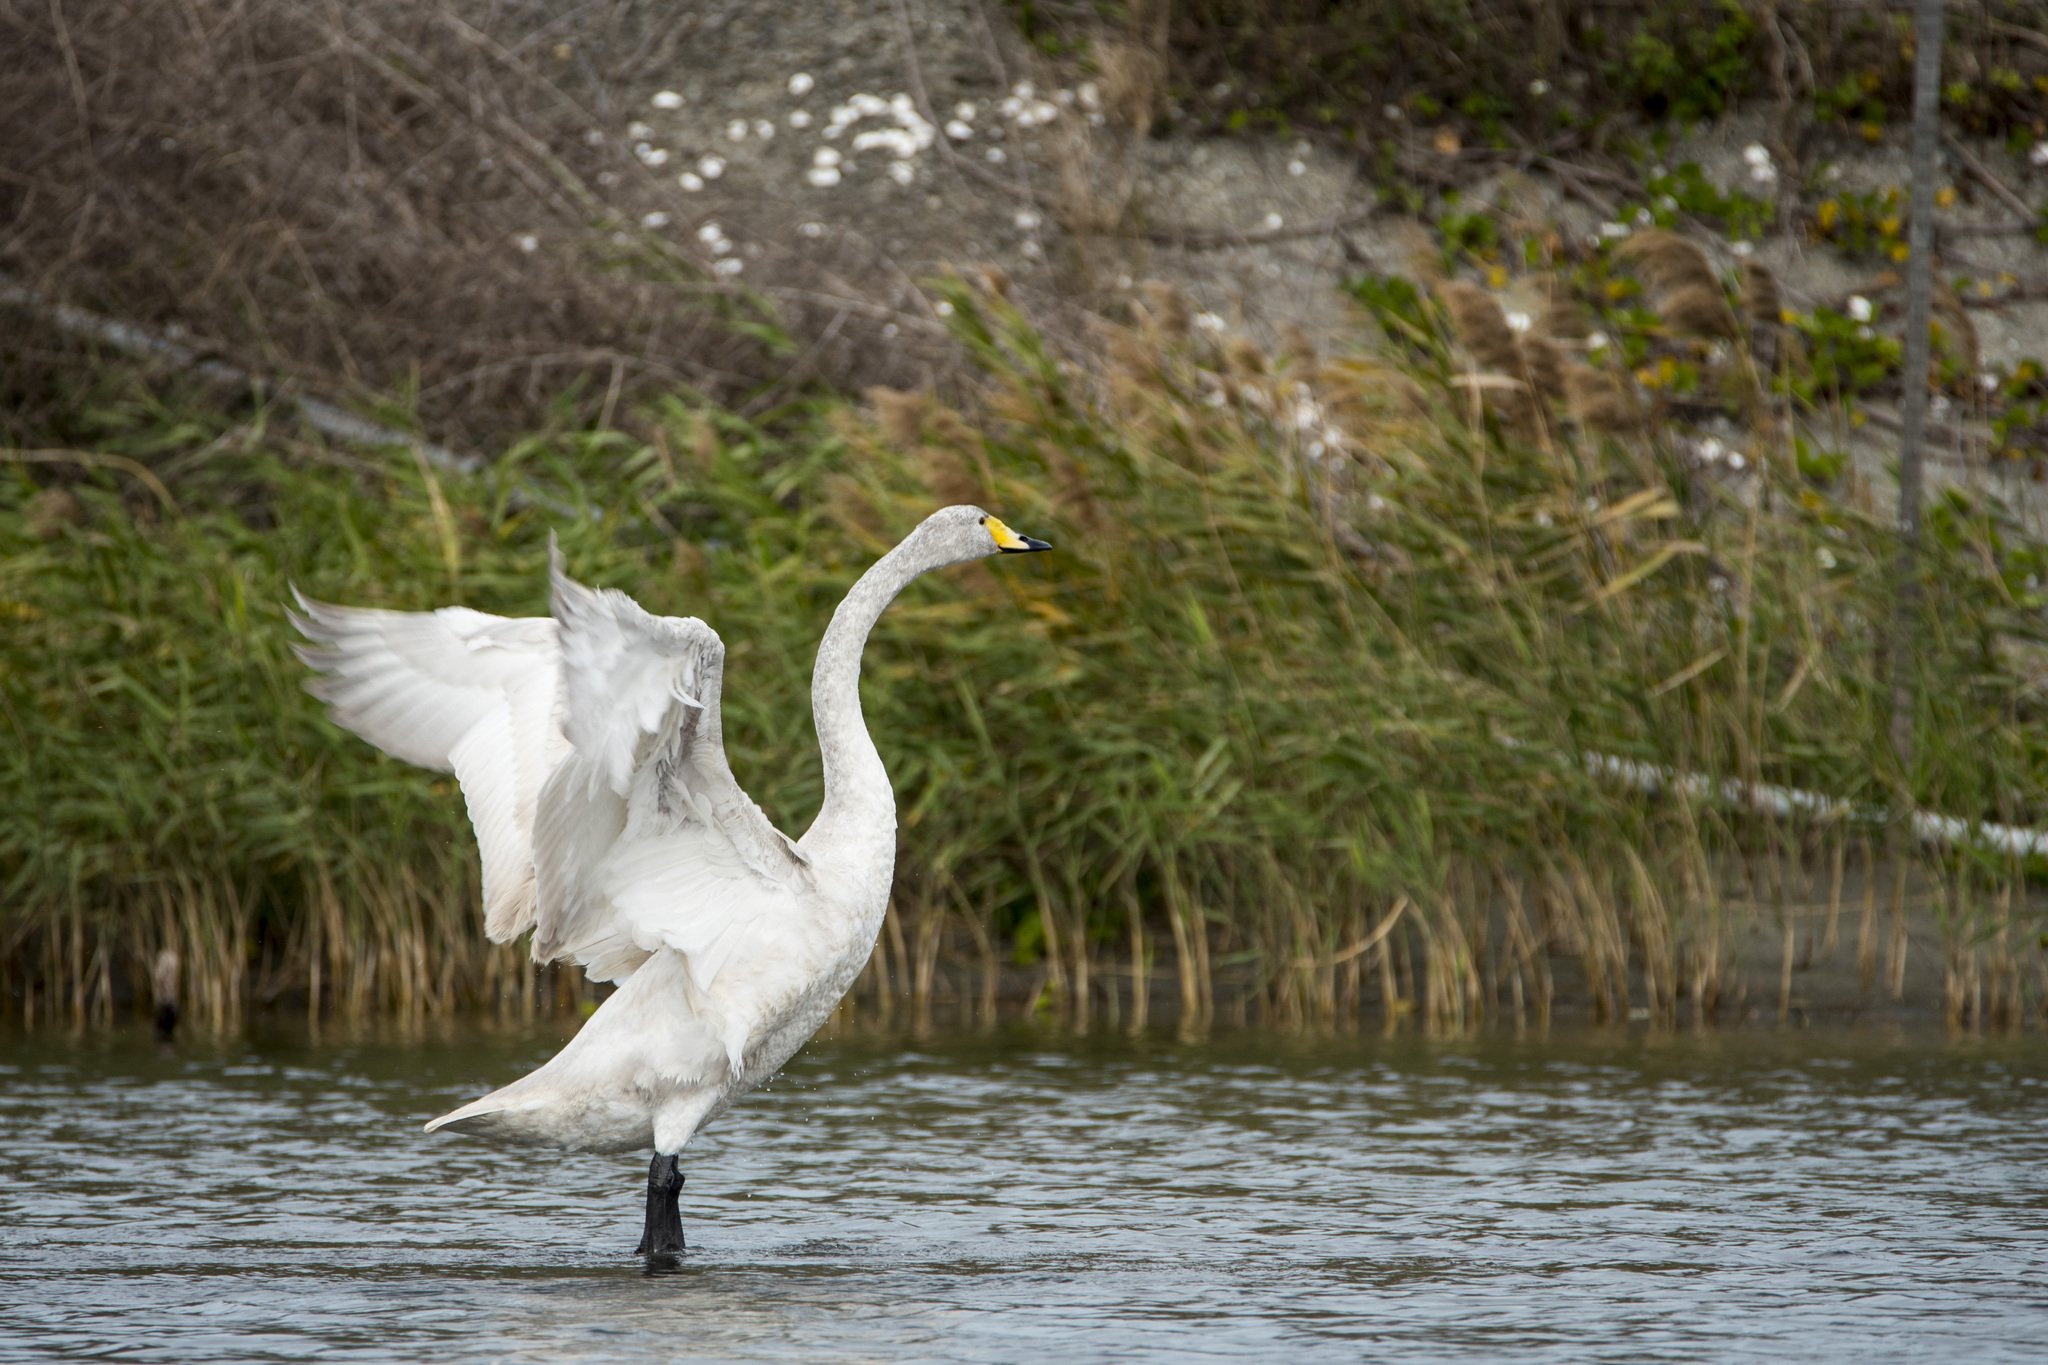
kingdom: Animalia
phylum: Chordata
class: Aves
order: Anseriformes
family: Anatidae
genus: Cygnus
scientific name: Cygnus cygnus
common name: Whooper swan
